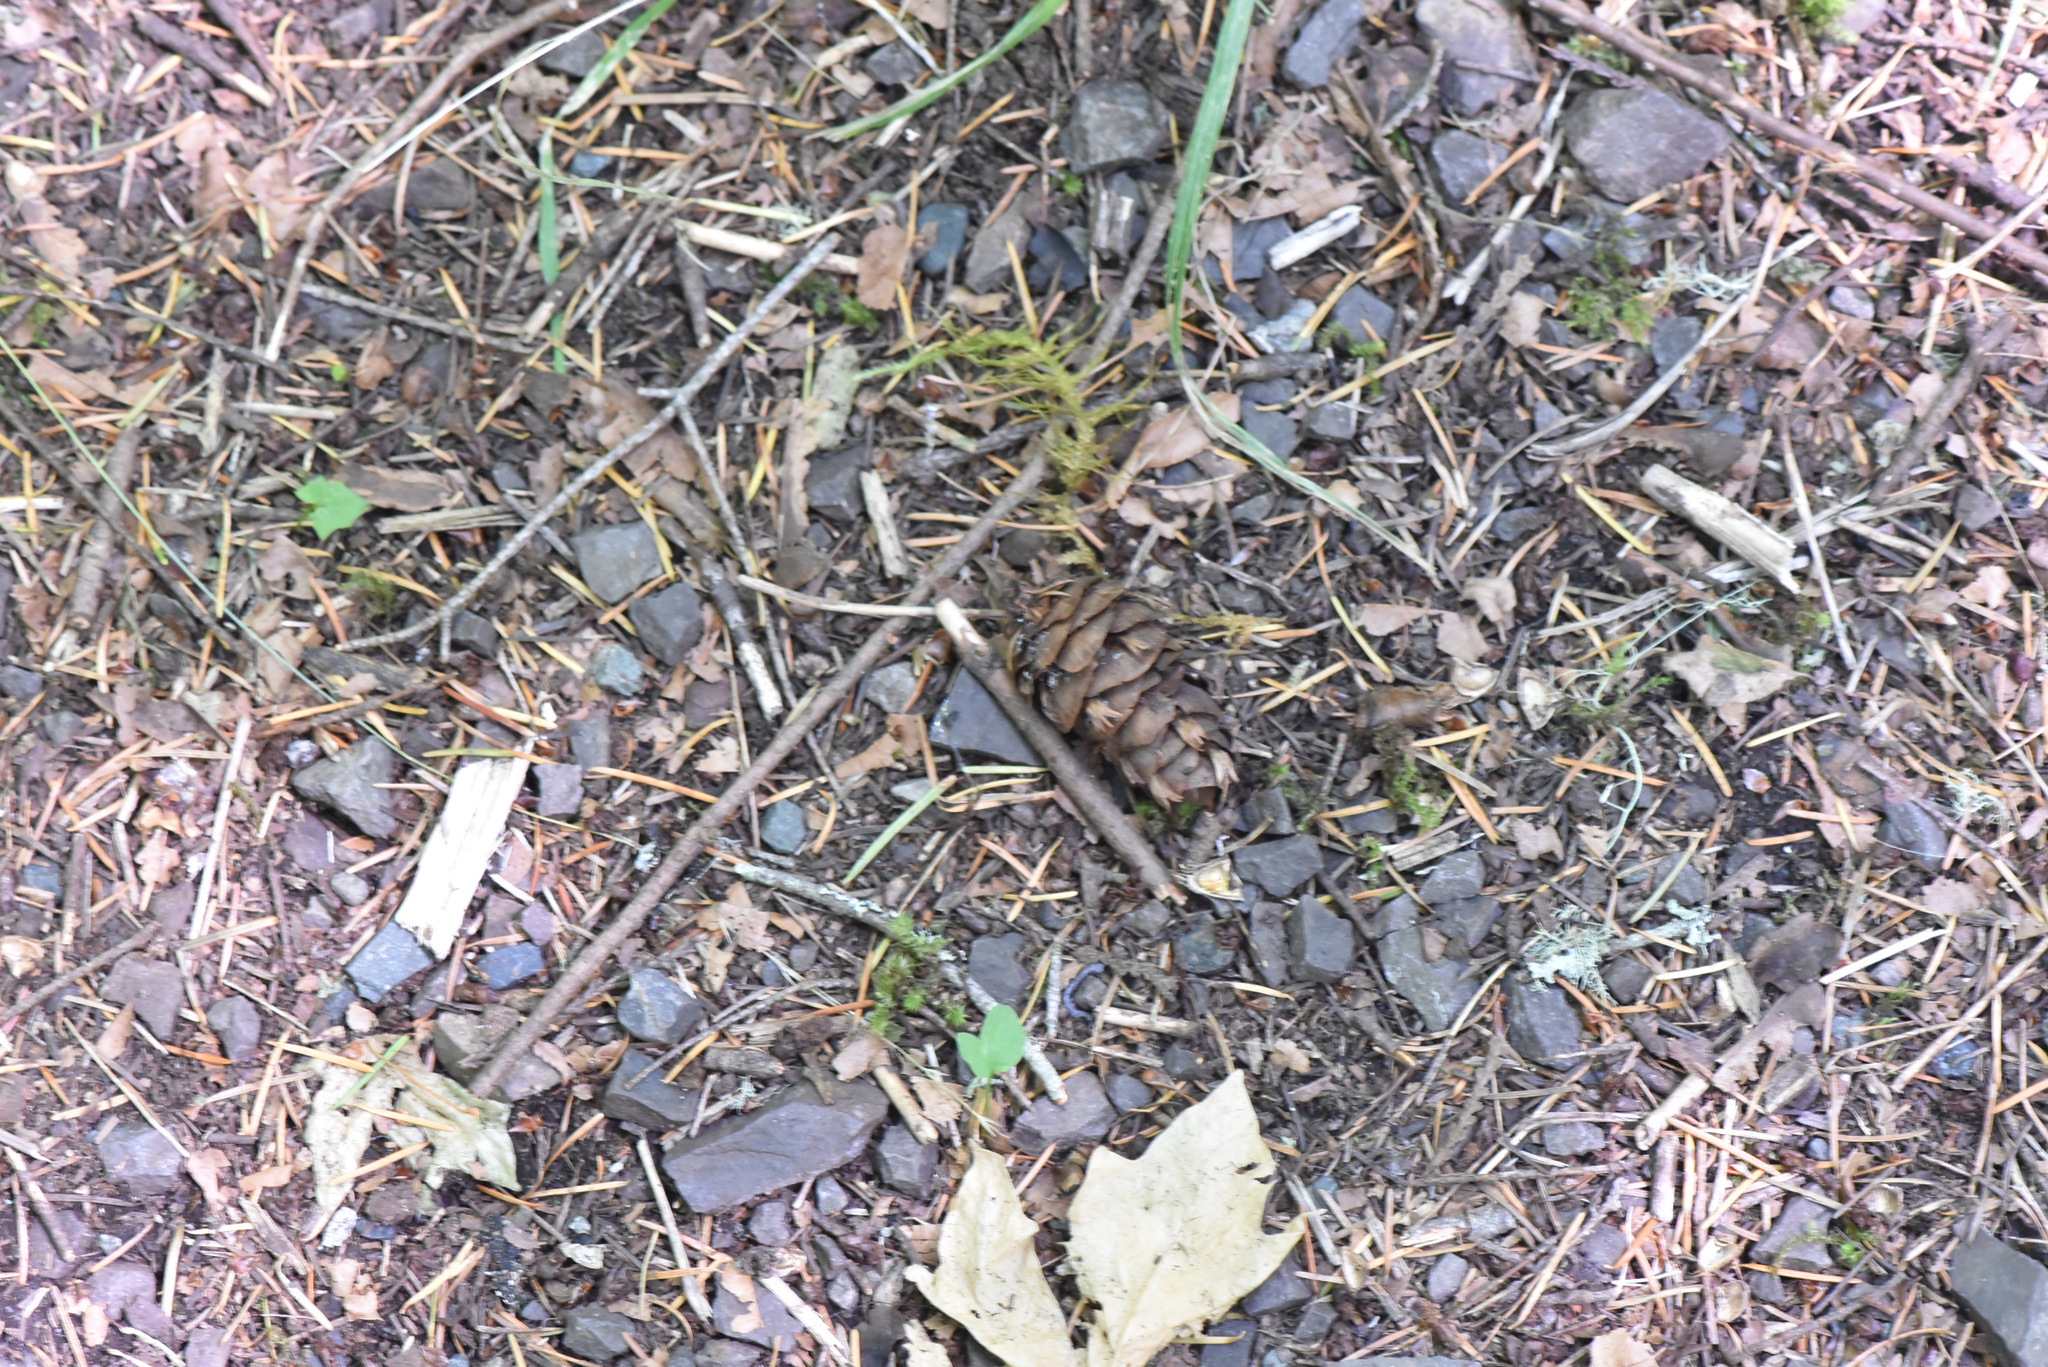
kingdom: Plantae
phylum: Tracheophyta
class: Pinopsida
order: Pinales
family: Pinaceae
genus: Pseudotsuga
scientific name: Pseudotsuga menziesii
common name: Douglas fir
